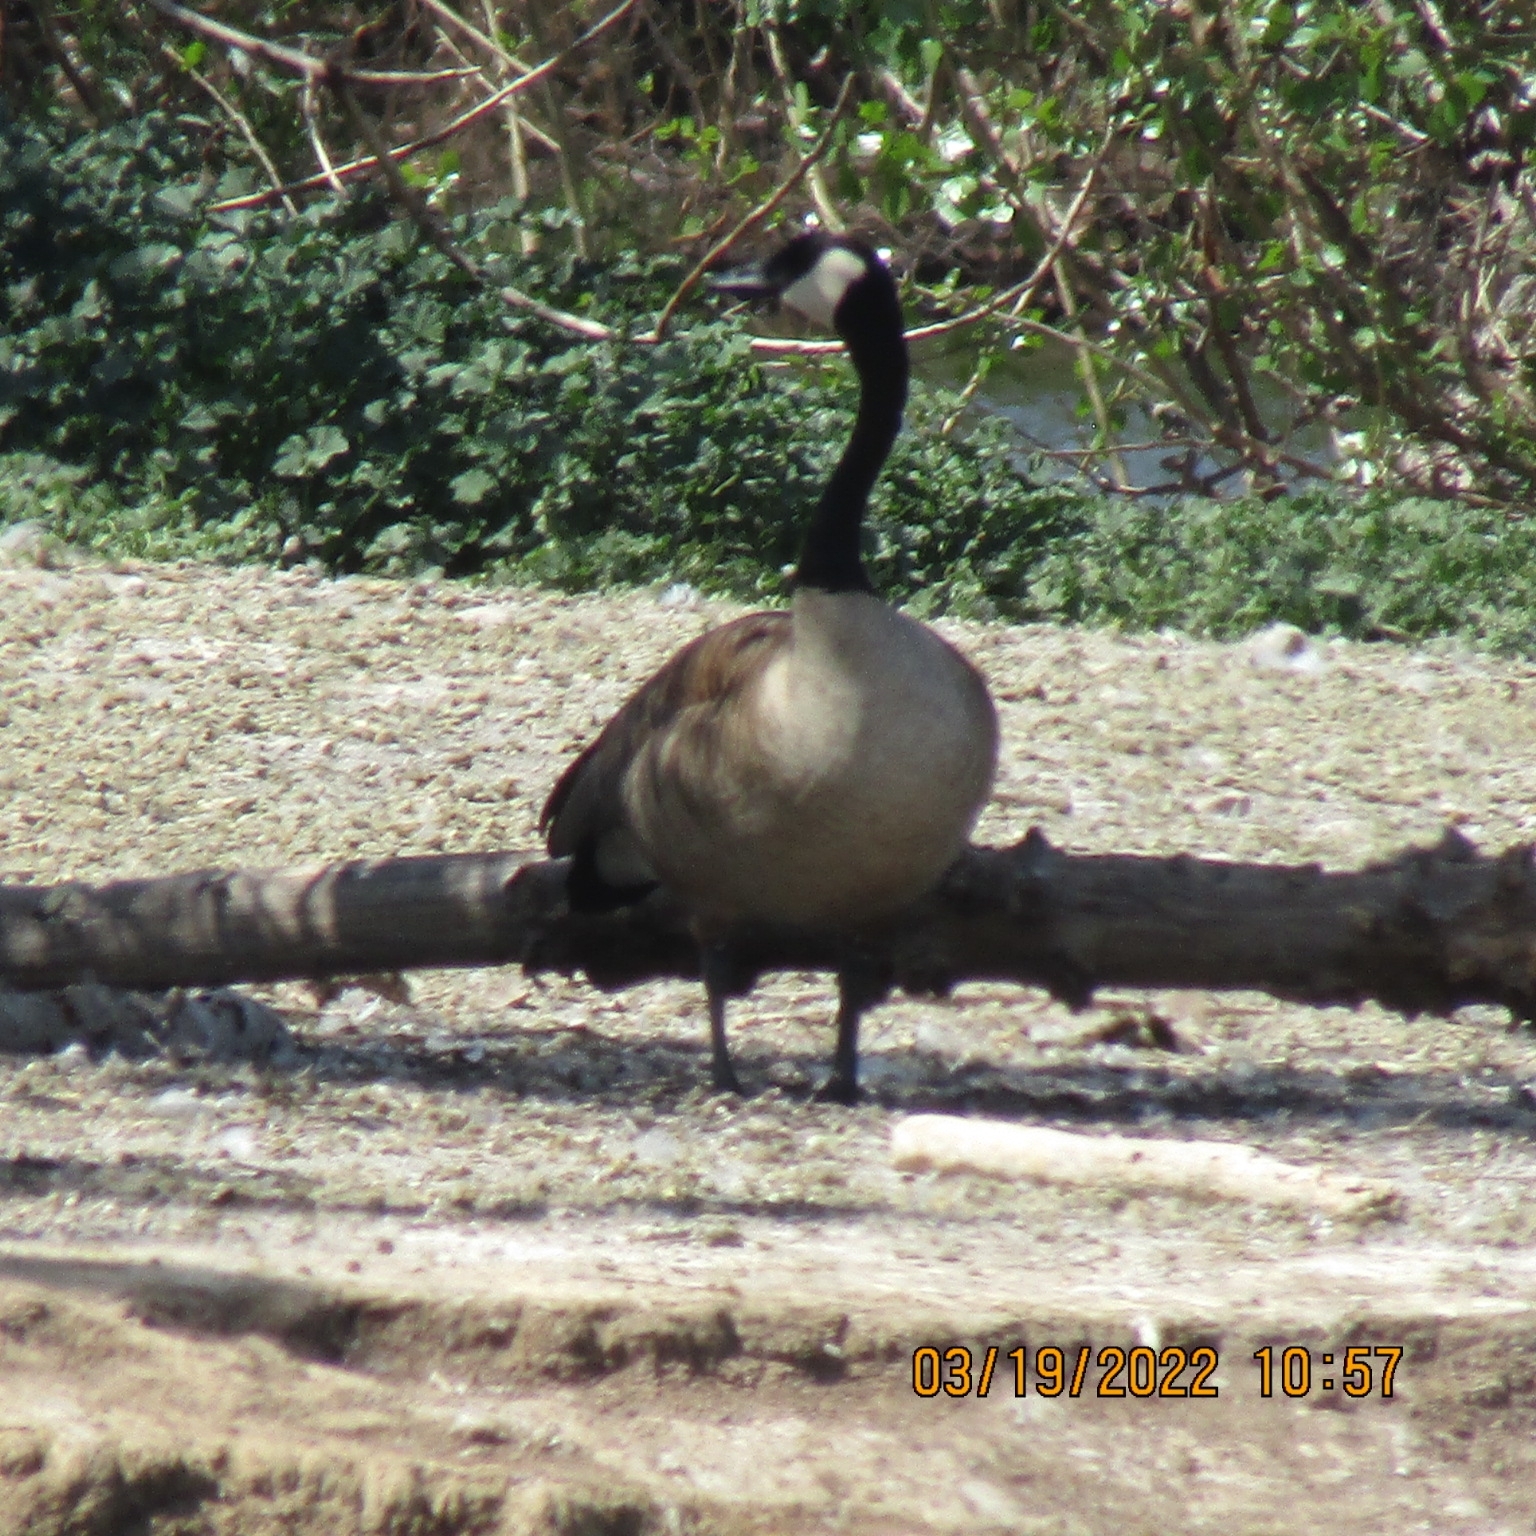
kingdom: Animalia
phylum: Chordata
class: Aves
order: Anseriformes
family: Anatidae
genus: Branta
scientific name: Branta canadensis
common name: Canada goose
